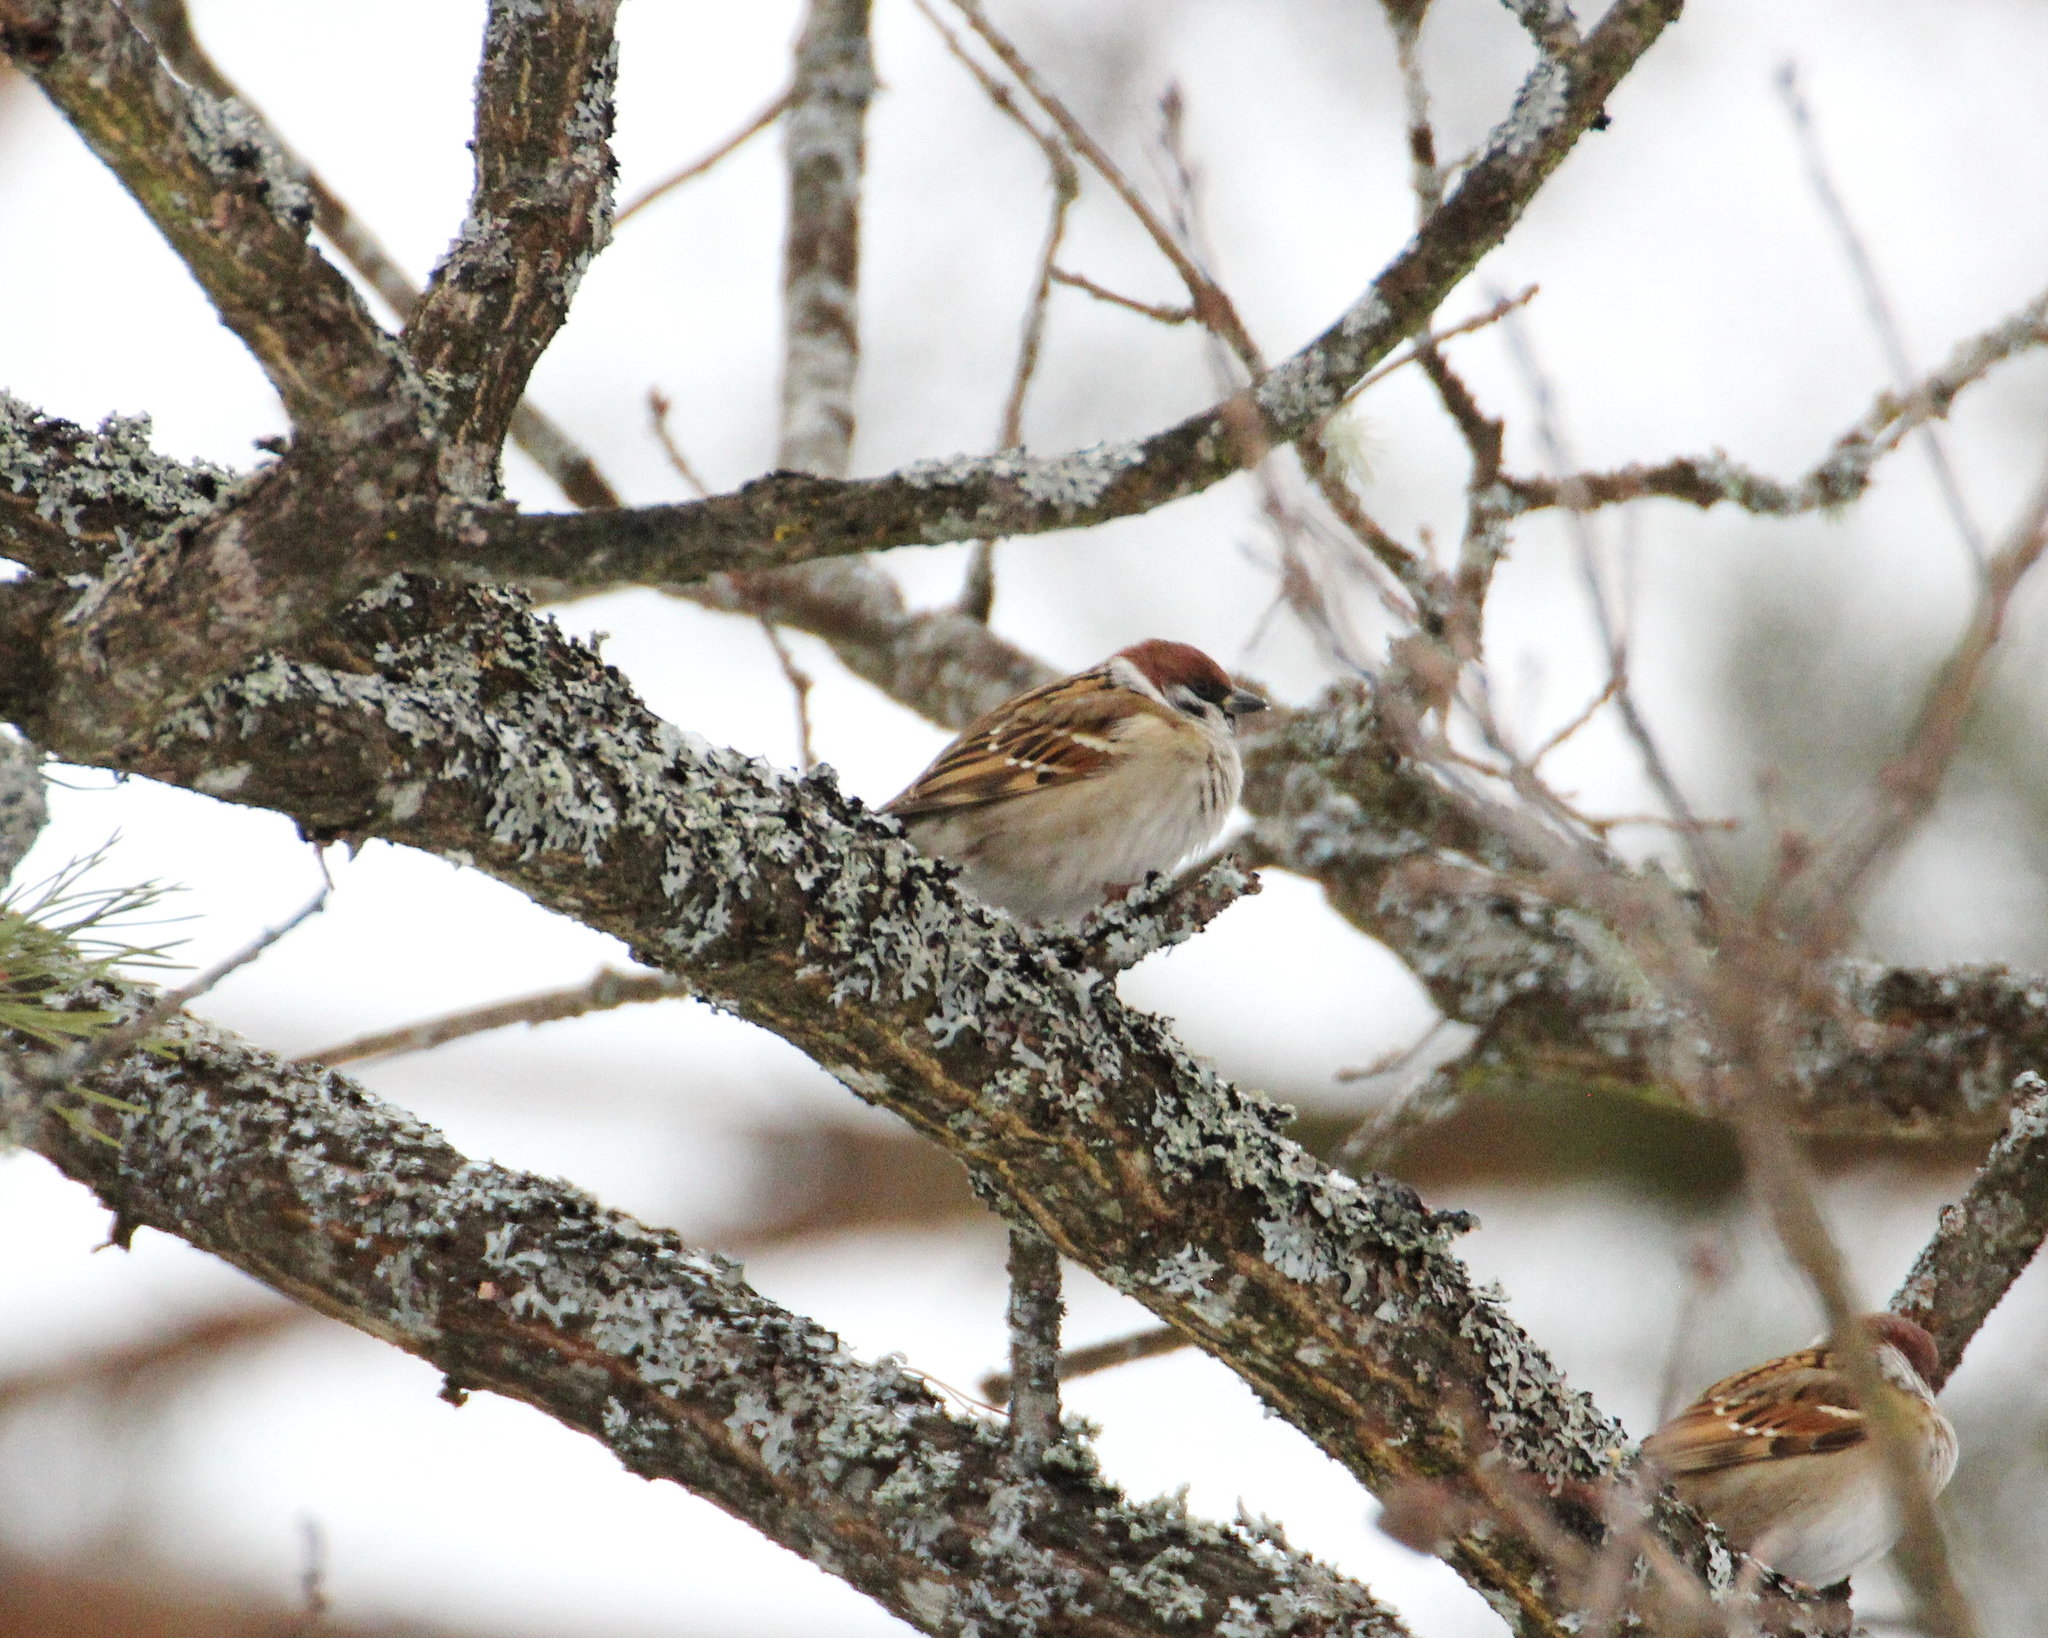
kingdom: Animalia
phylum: Chordata
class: Aves
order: Passeriformes
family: Passeridae
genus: Passer
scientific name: Passer montanus
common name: Eurasian tree sparrow
